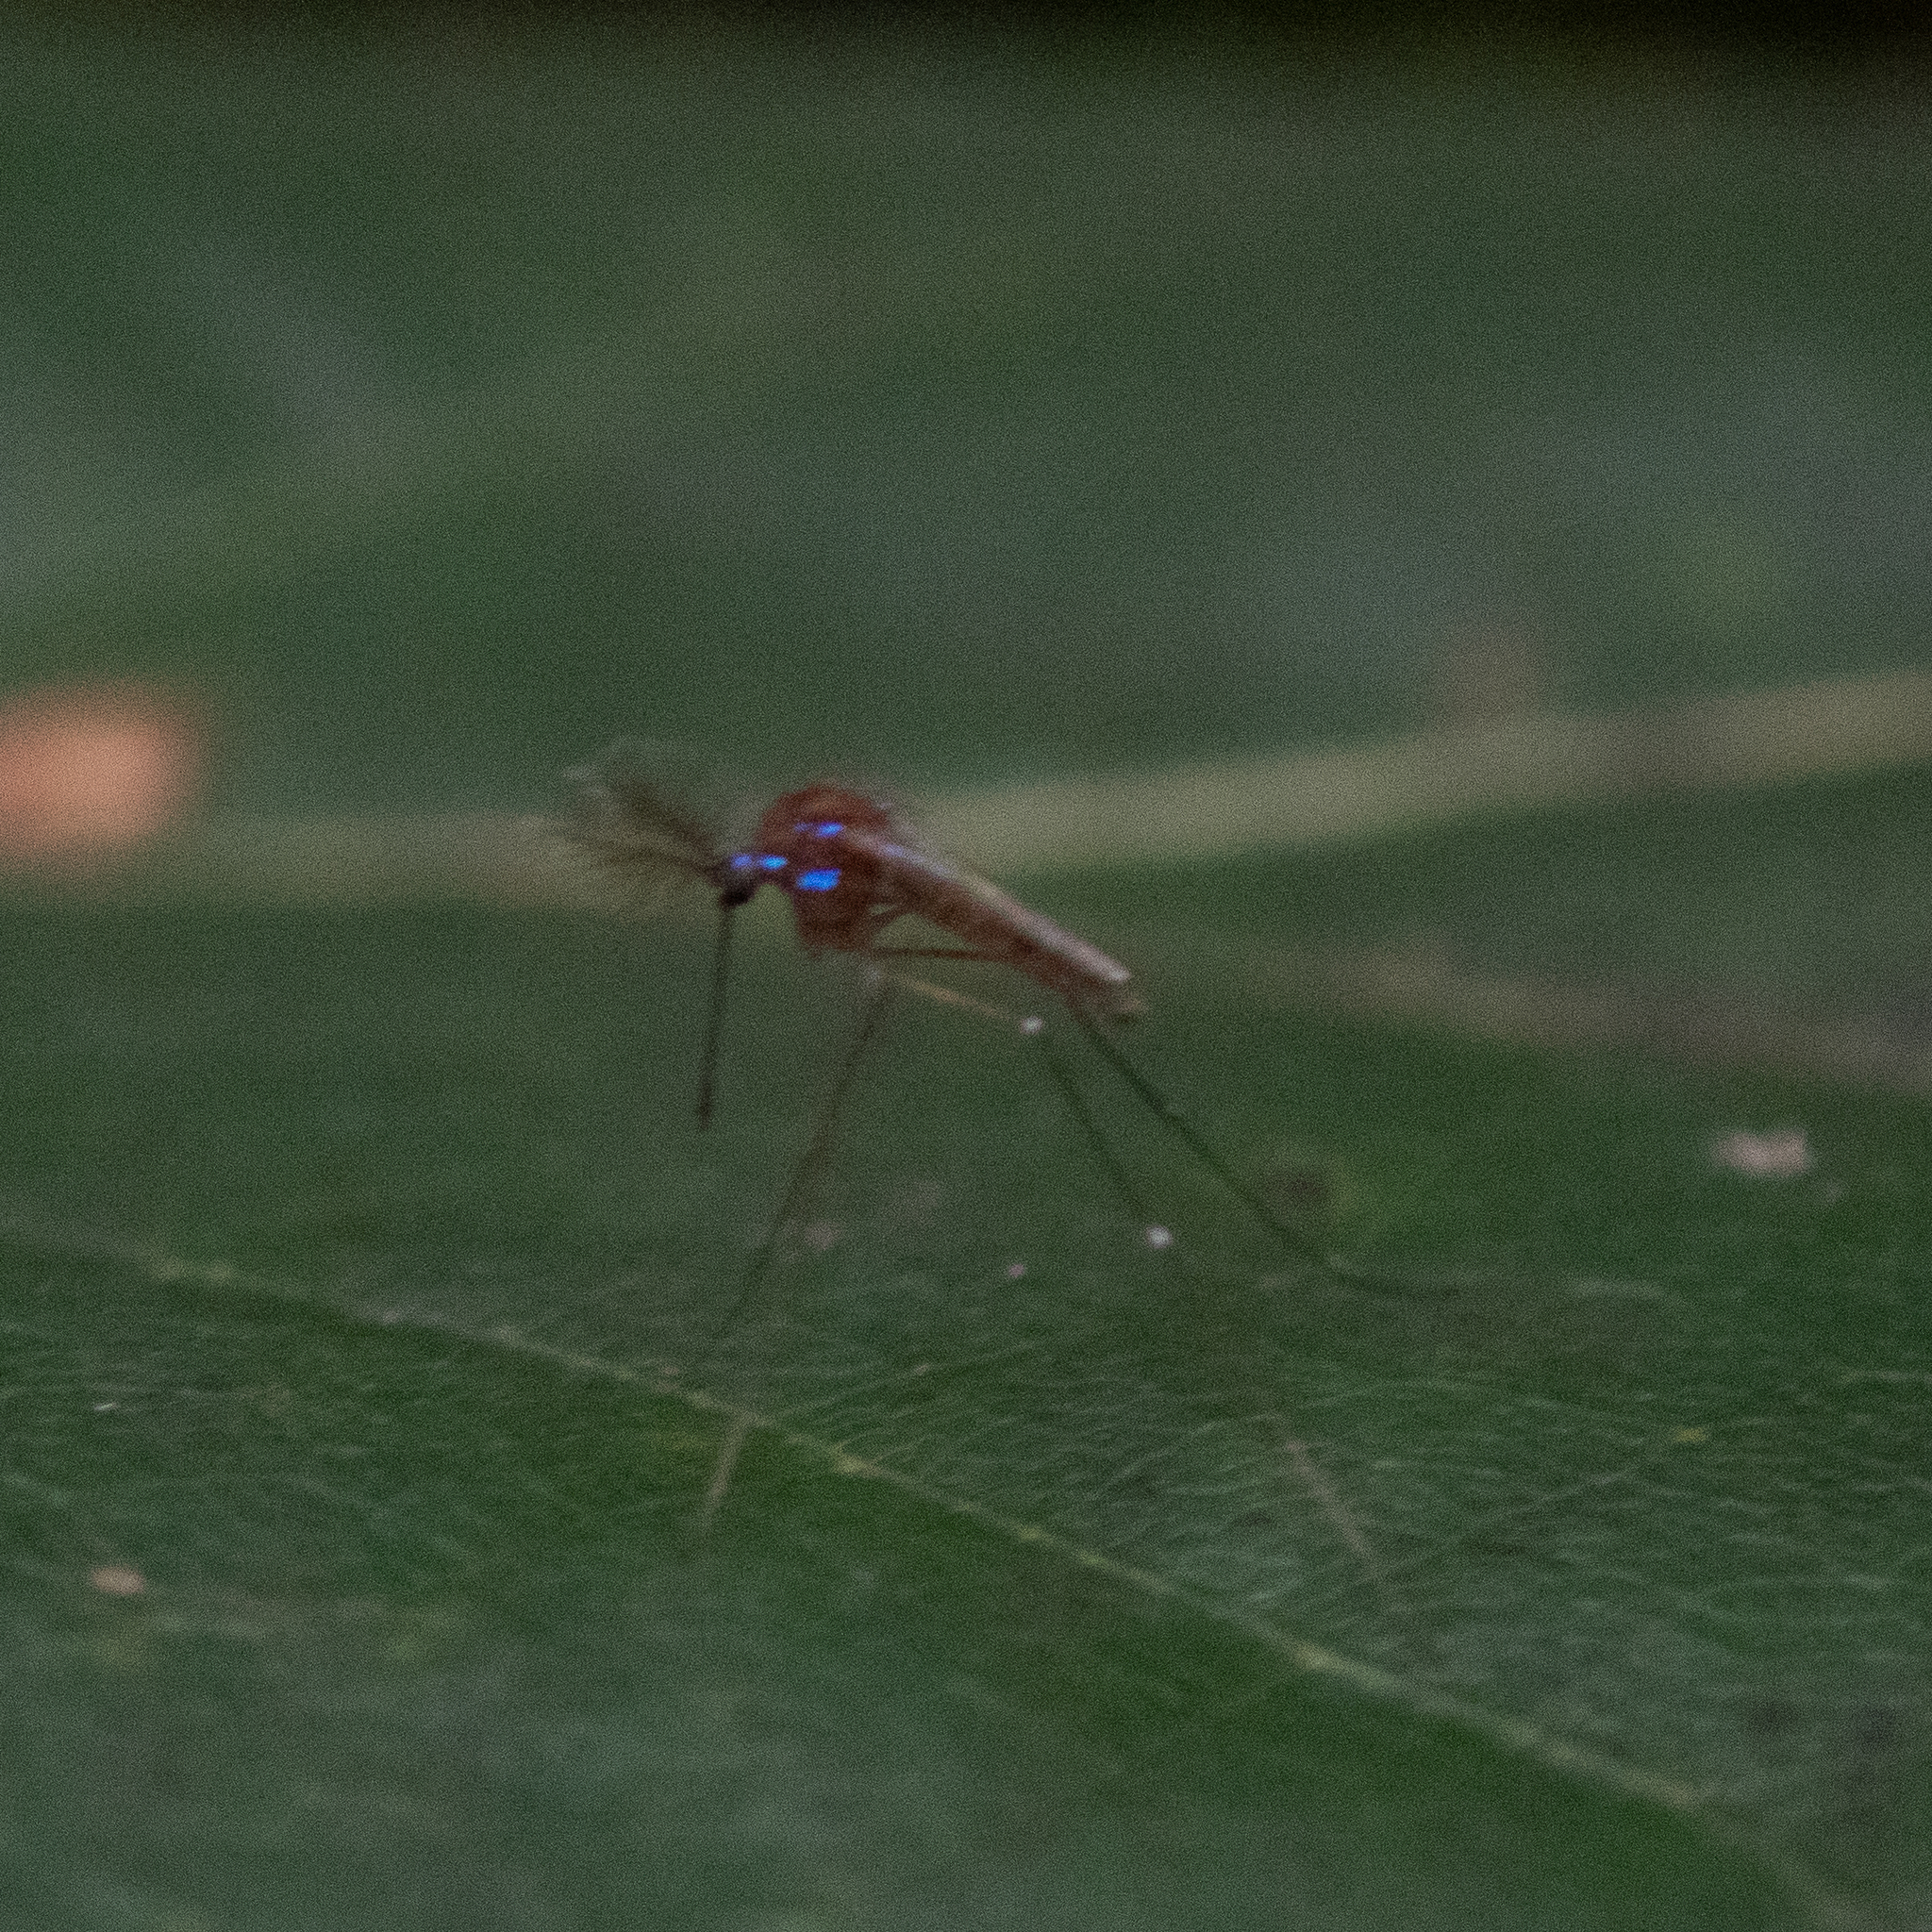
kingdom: Animalia
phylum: Arthropoda
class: Insecta
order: Diptera
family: Culicidae
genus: Uranotaenia
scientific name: Uranotaenia sapphirina
